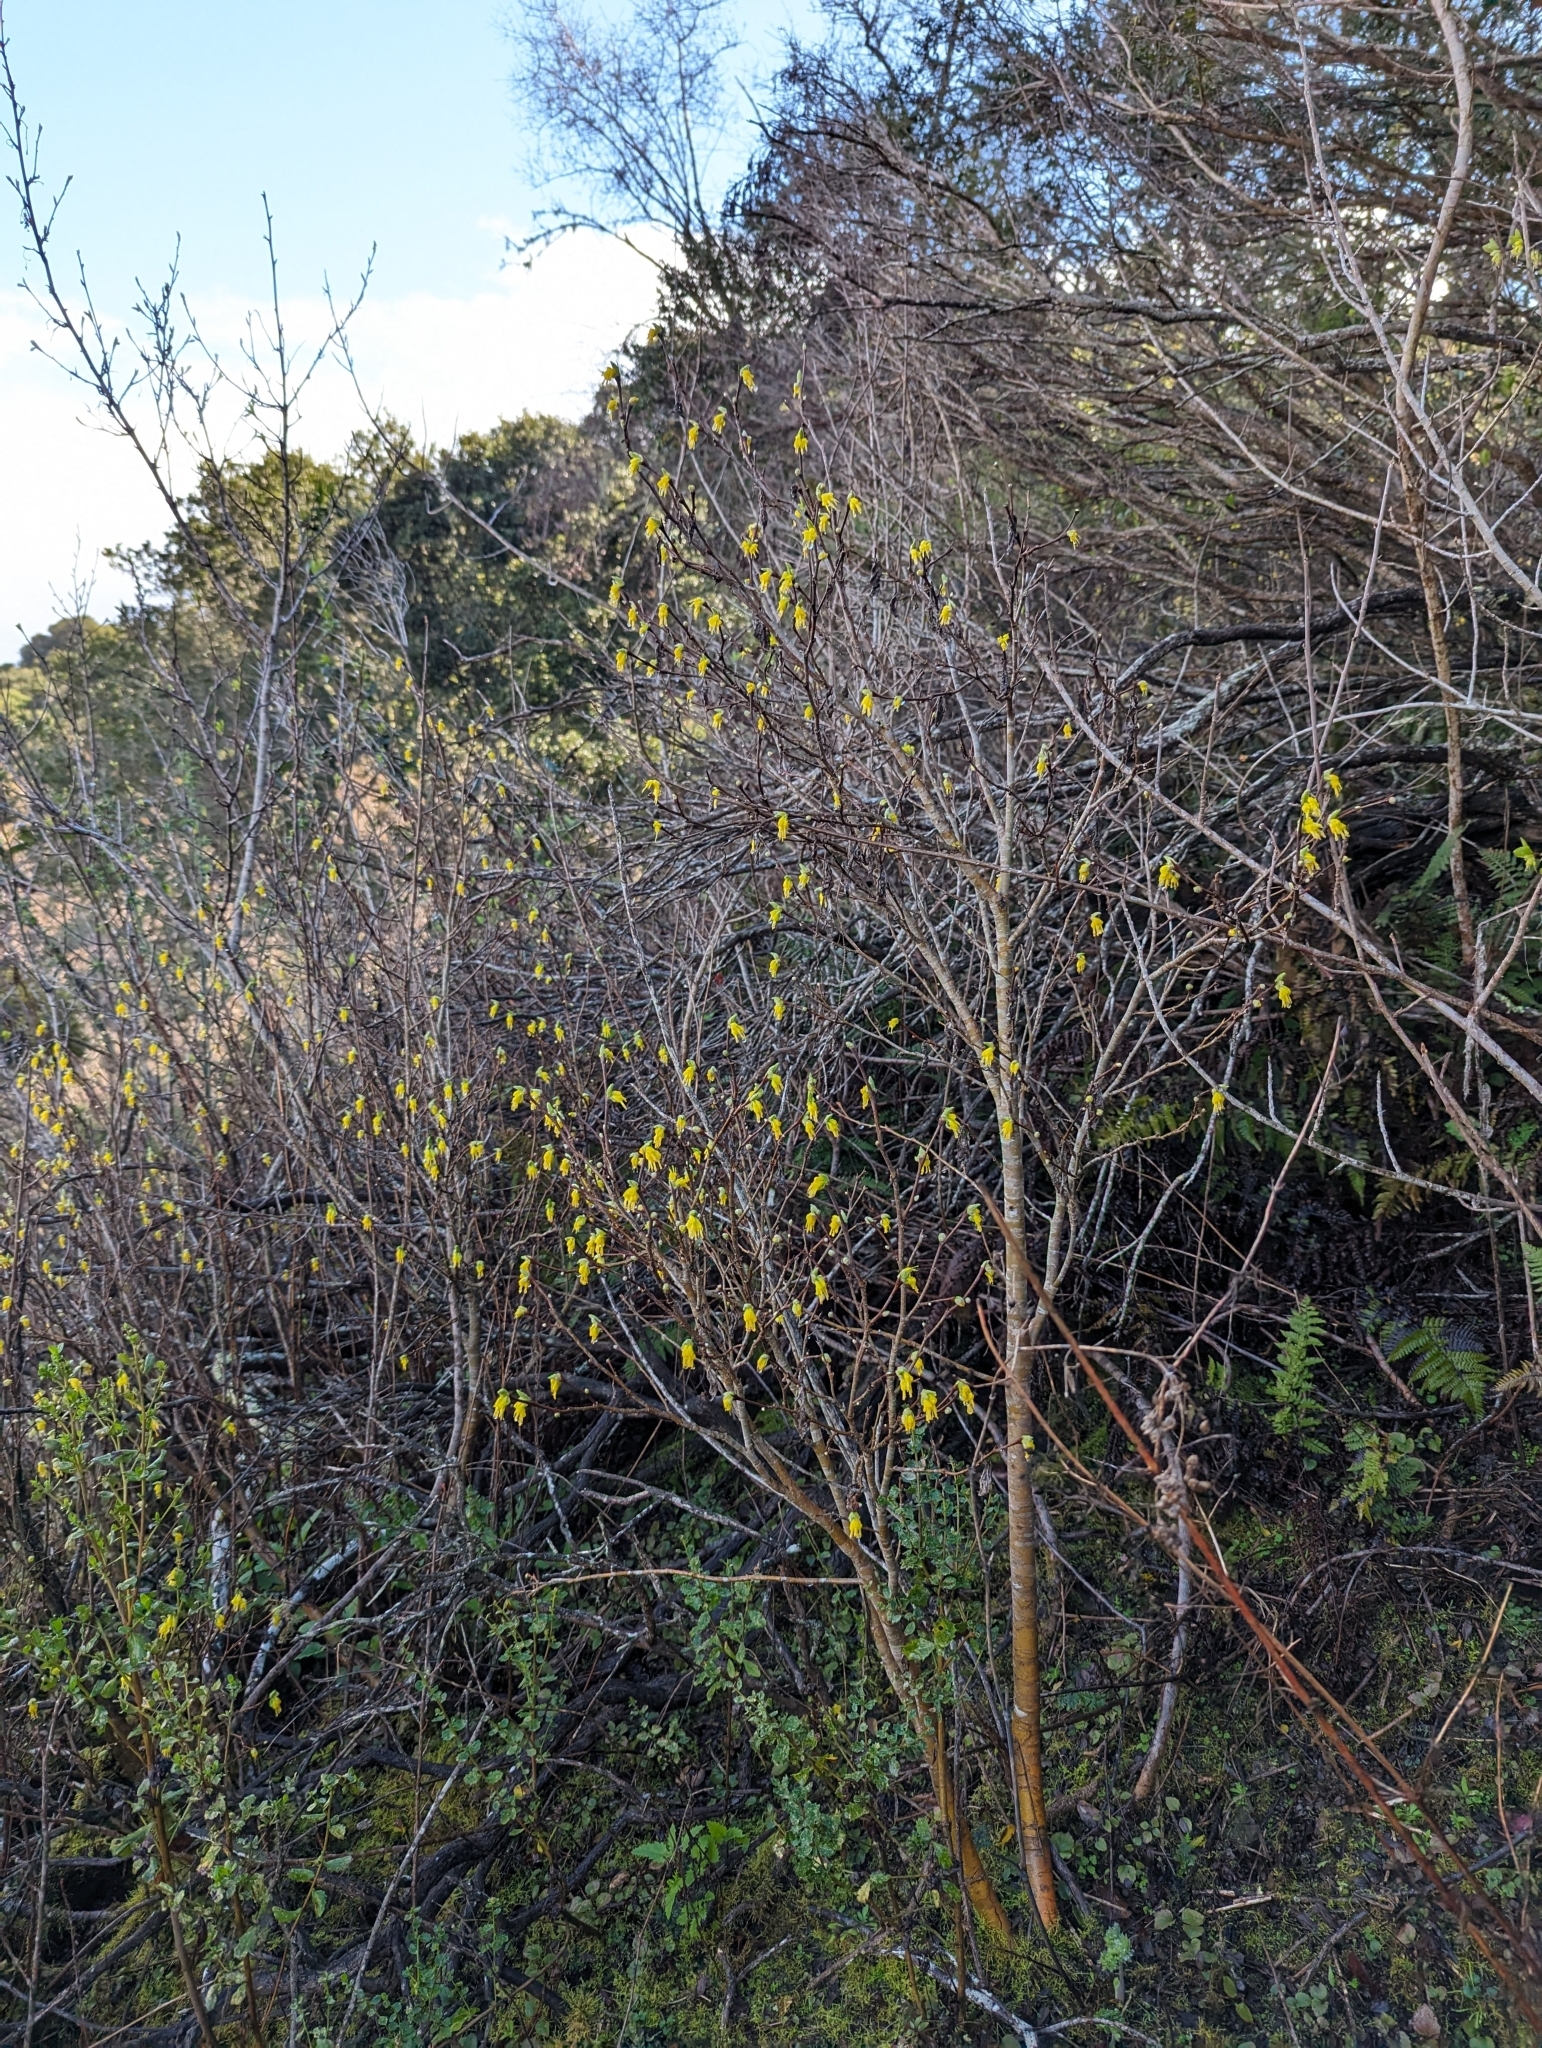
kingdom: Plantae
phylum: Tracheophyta
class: Magnoliopsida
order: Malvales
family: Thymelaeaceae
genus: Dirca
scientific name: Dirca occidentalis
